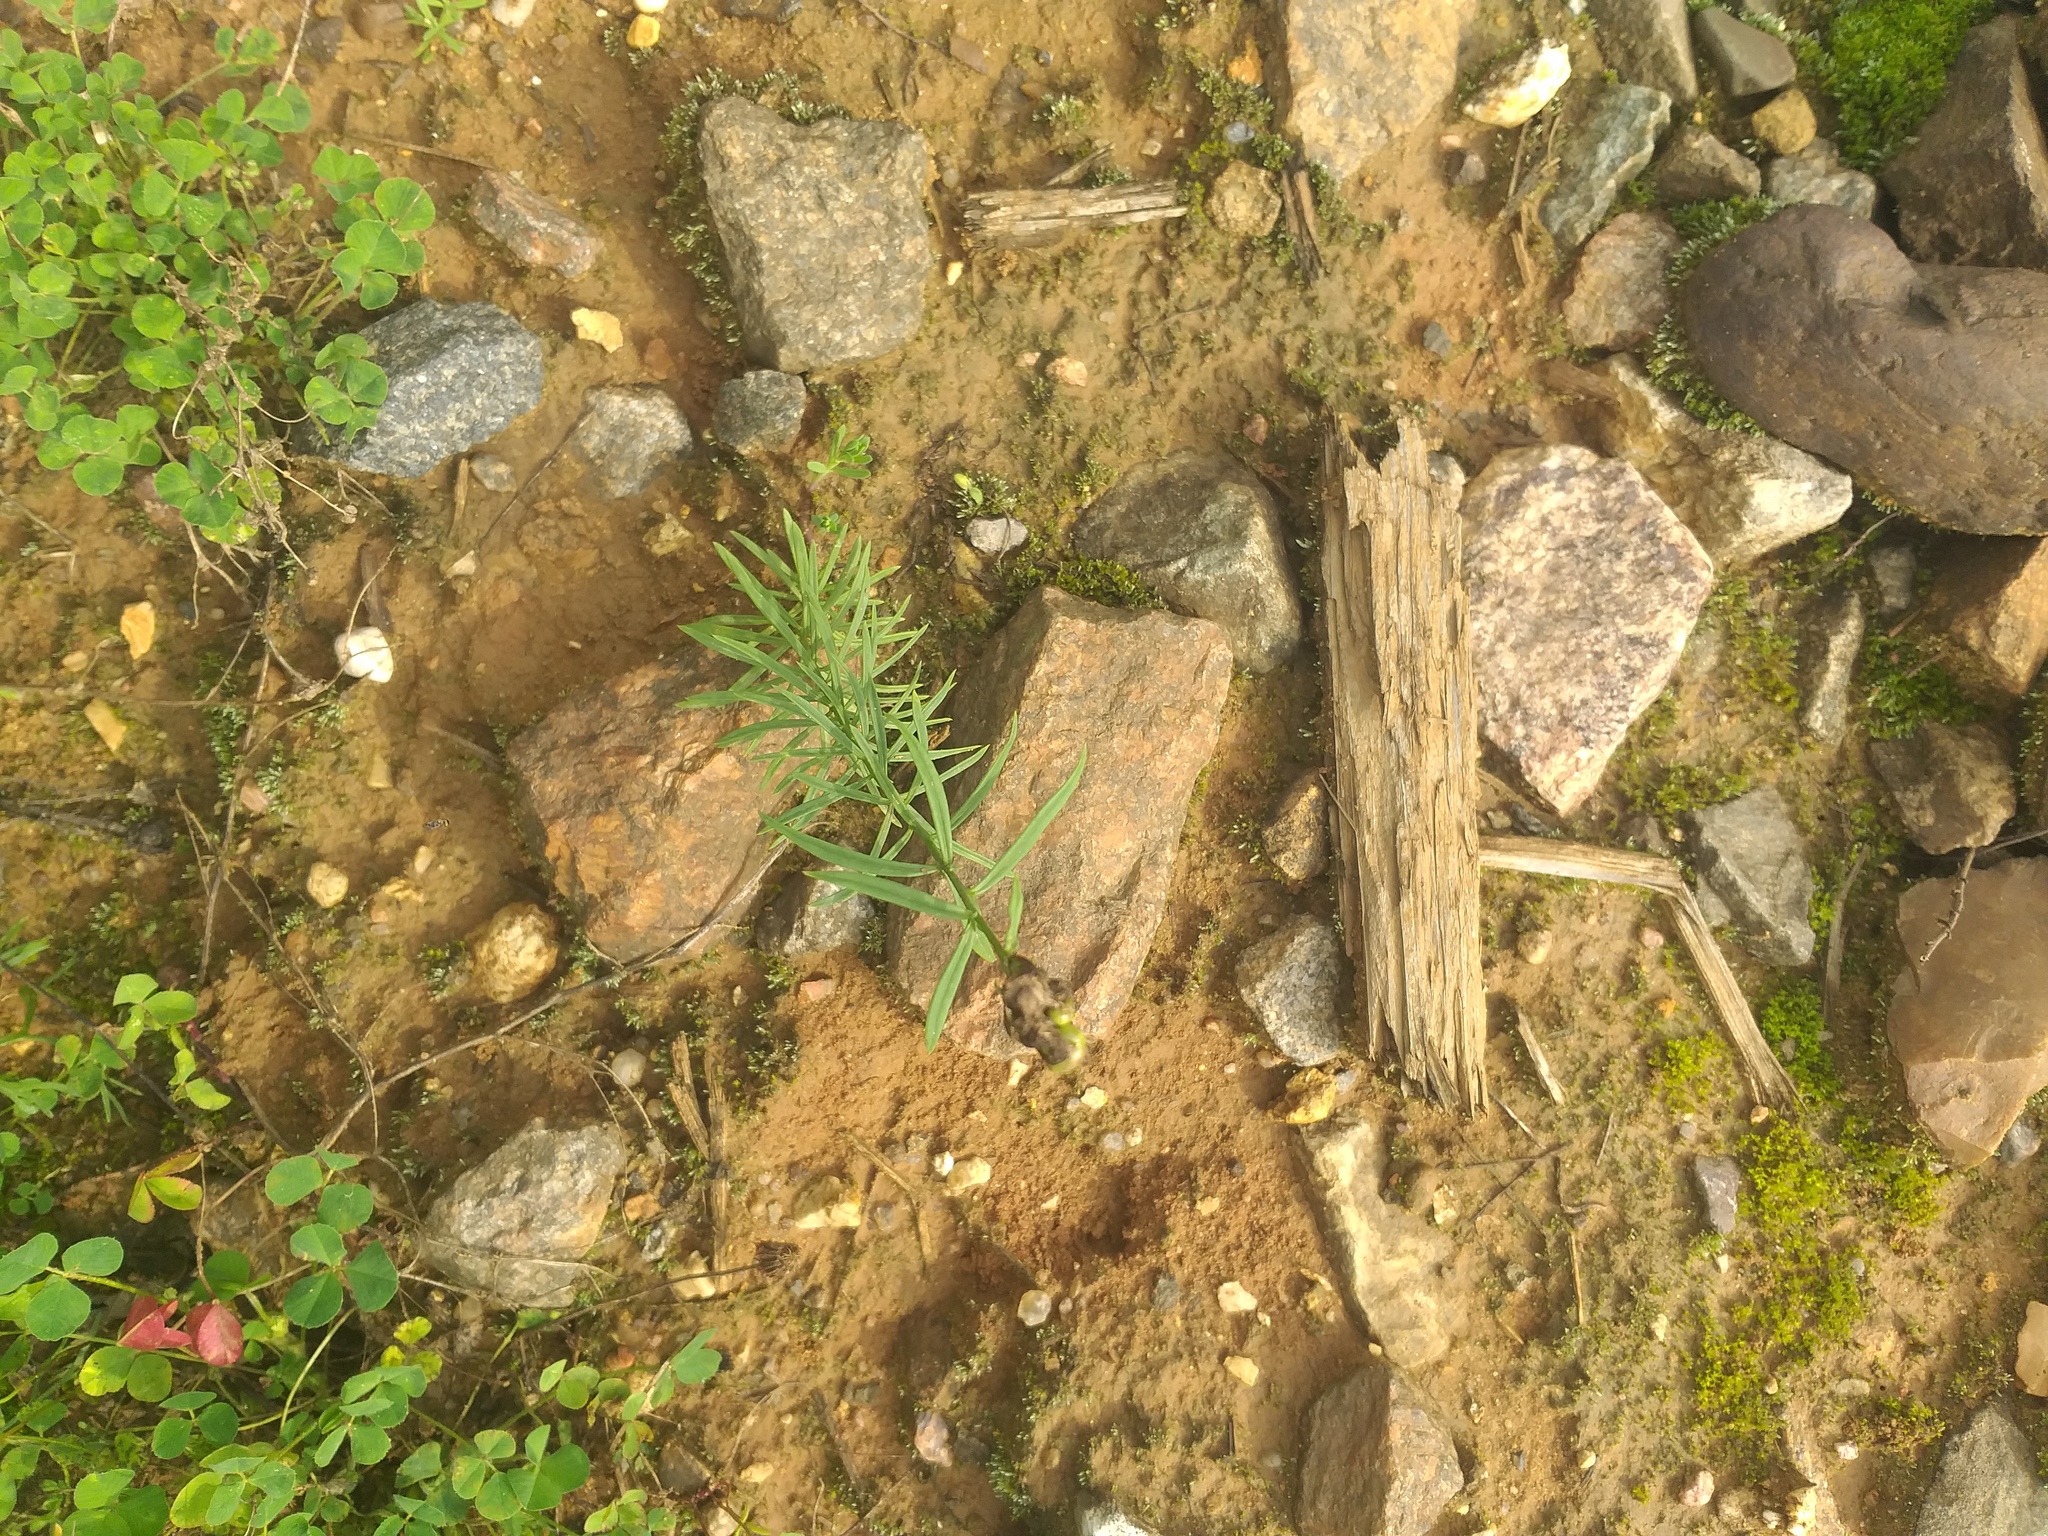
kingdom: Plantae
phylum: Tracheophyta
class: Magnoliopsida
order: Lamiales
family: Plantaginaceae
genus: Linaria
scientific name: Linaria vulgaris
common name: Butter and eggs
